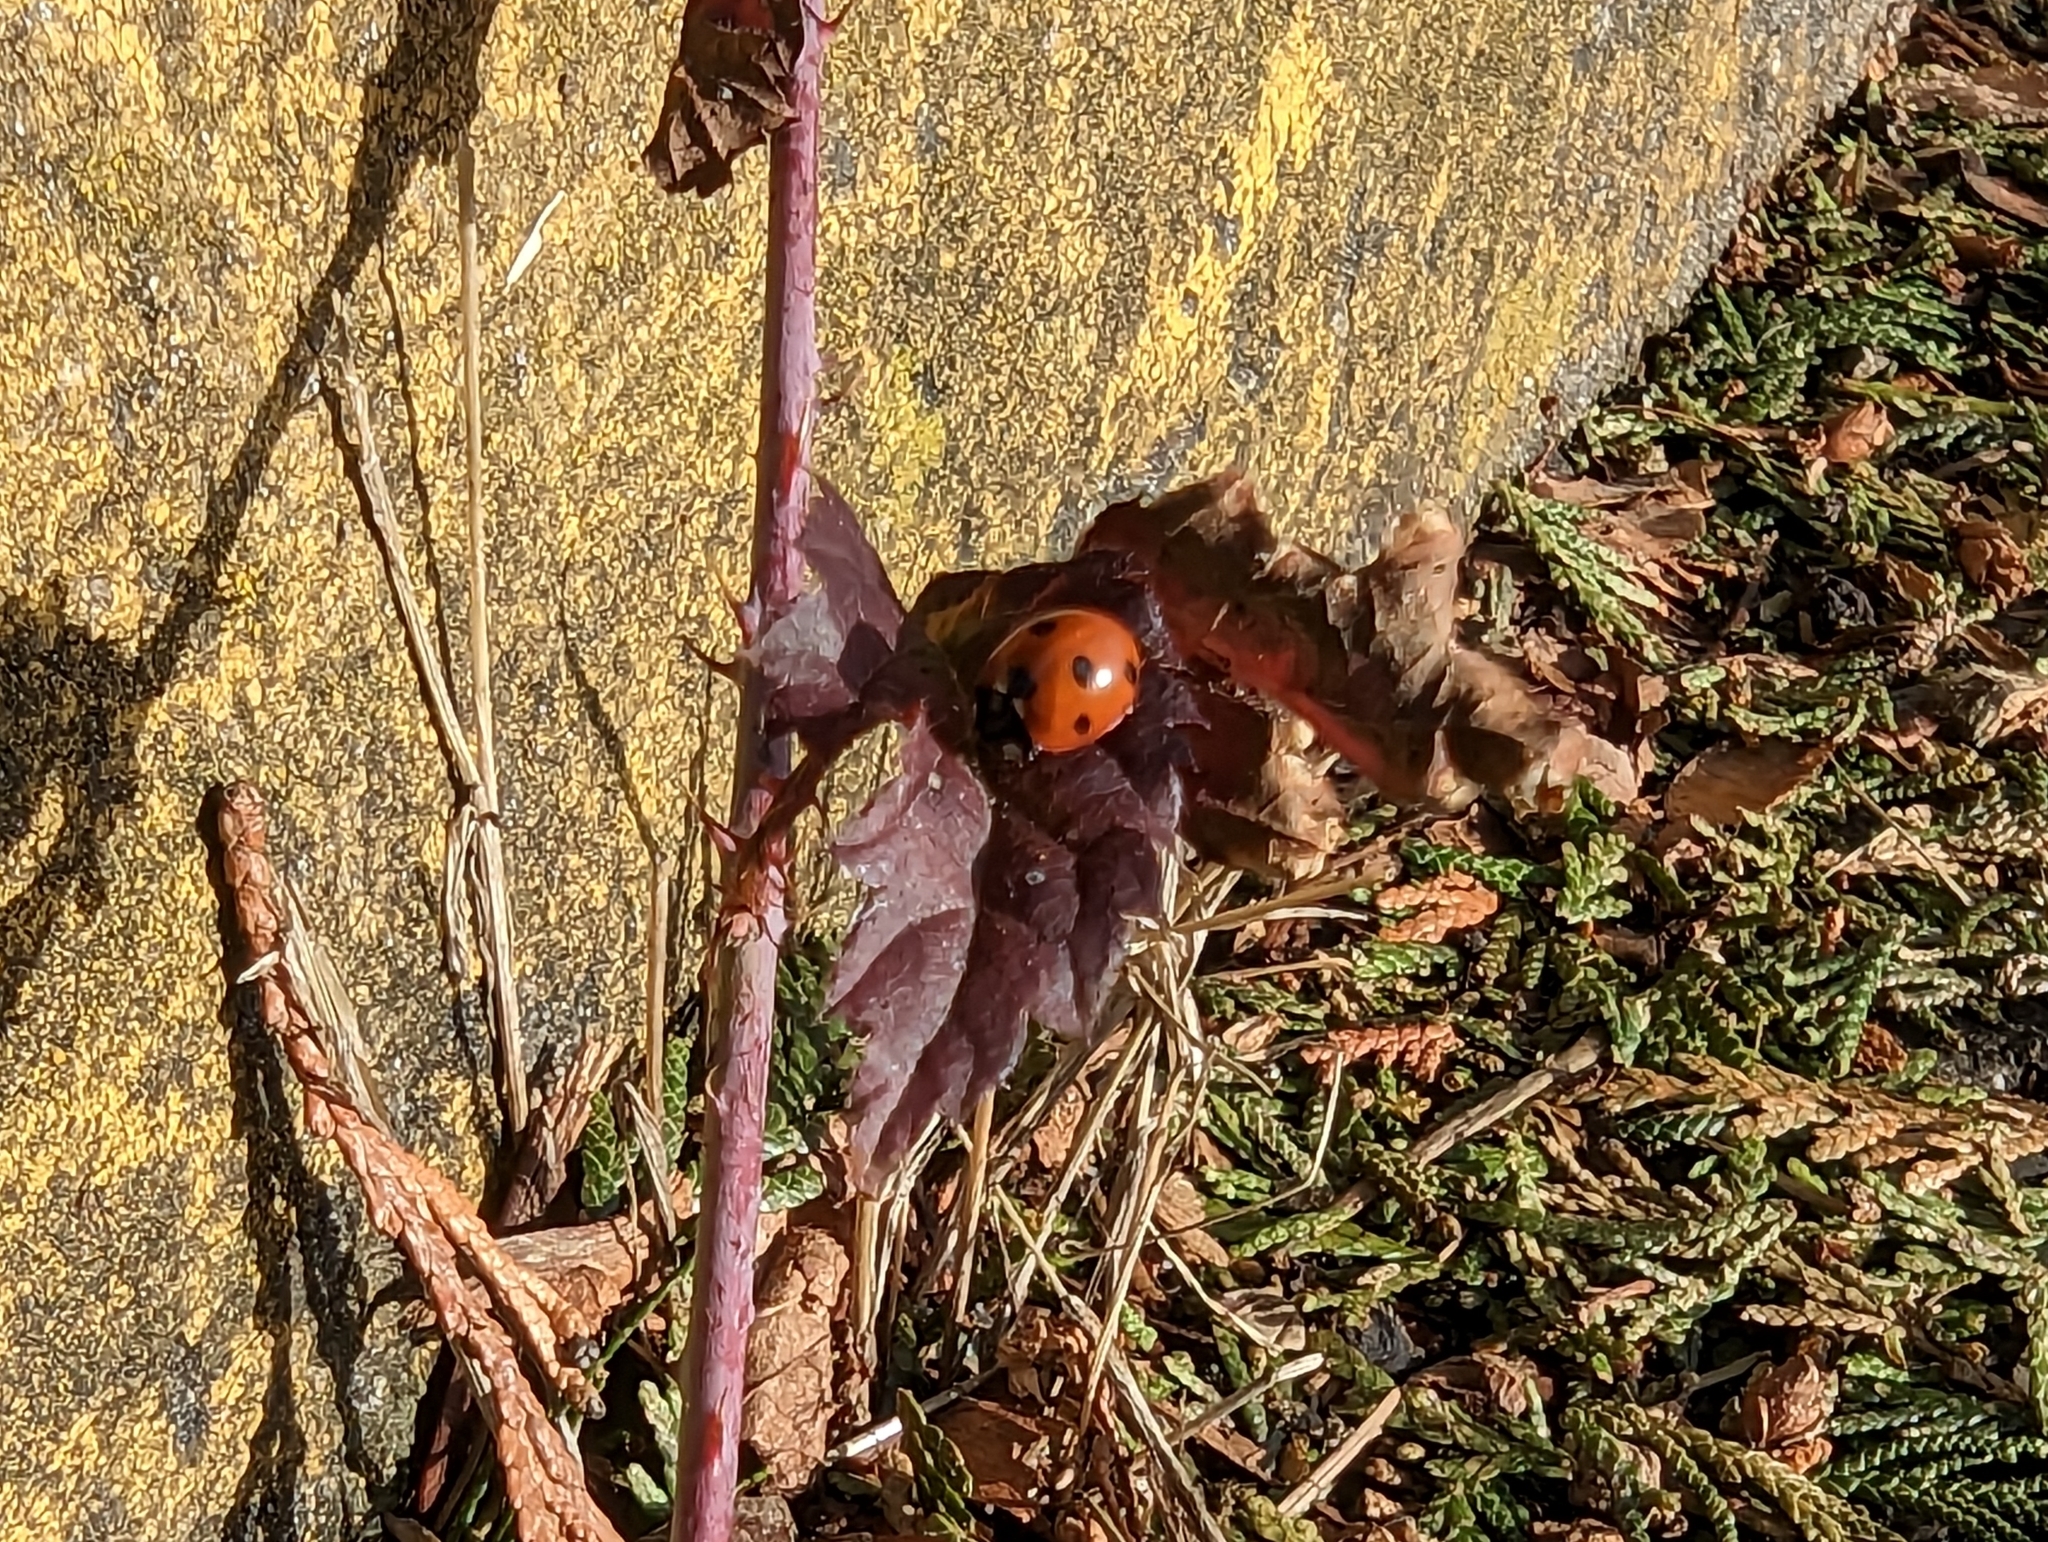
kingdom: Animalia
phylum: Arthropoda
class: Insecta
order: Coleoptera
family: Coccinellidae
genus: Coccinella
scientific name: Coccinella septempunctata
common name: Sevenspotted lady beetle
